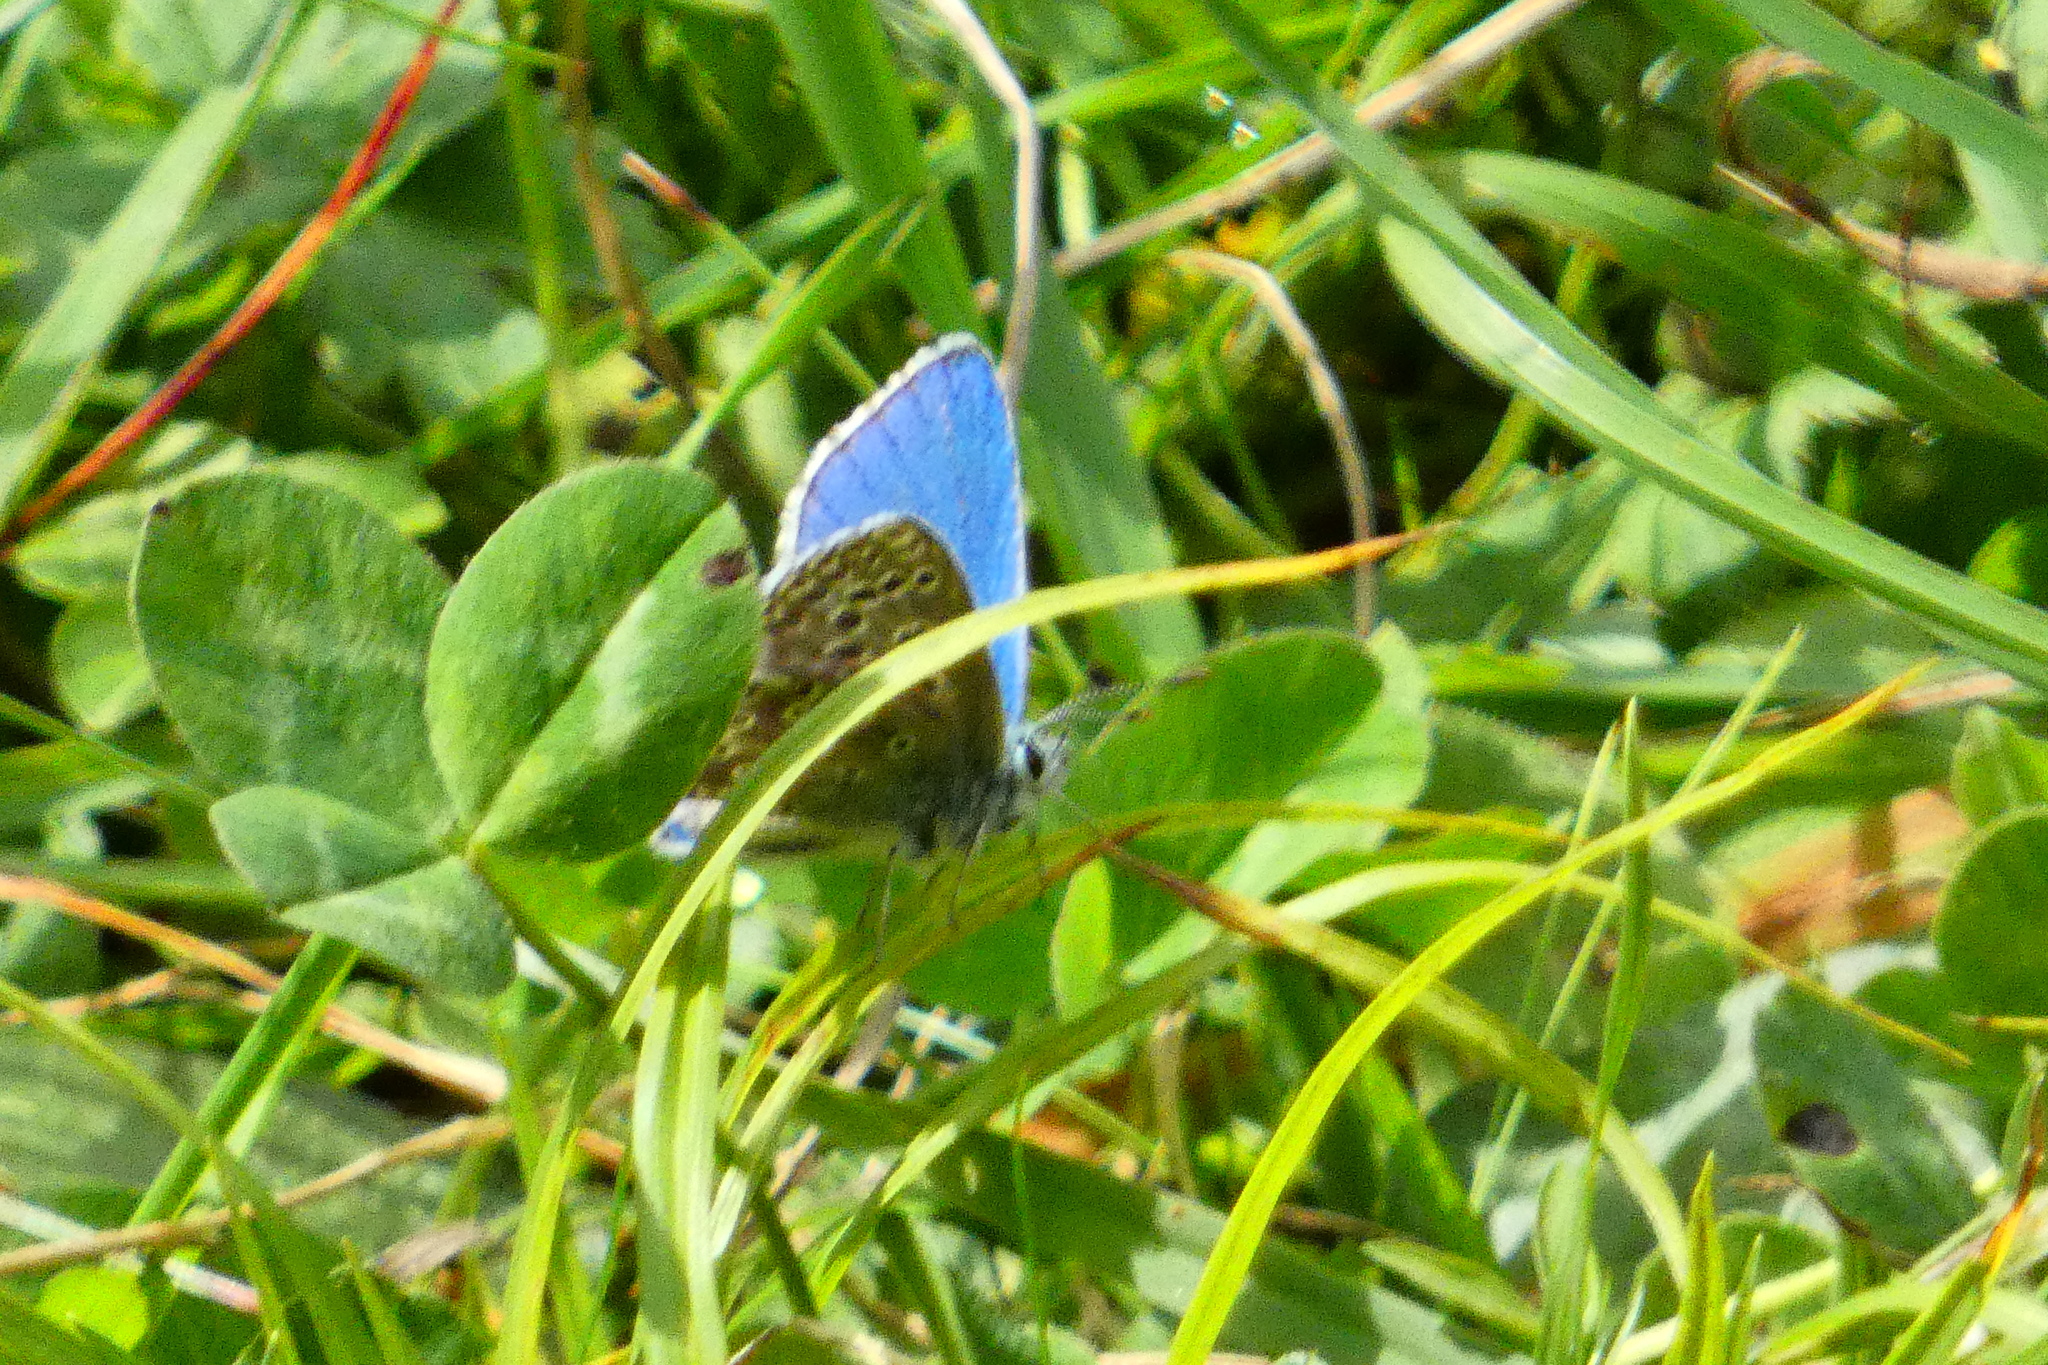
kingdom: Animalia
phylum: Arthropoda
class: Insecta
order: Lepidoptera
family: Lycaenidae
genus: Lysandra
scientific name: Lysandra bellargus
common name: Adonis blue
